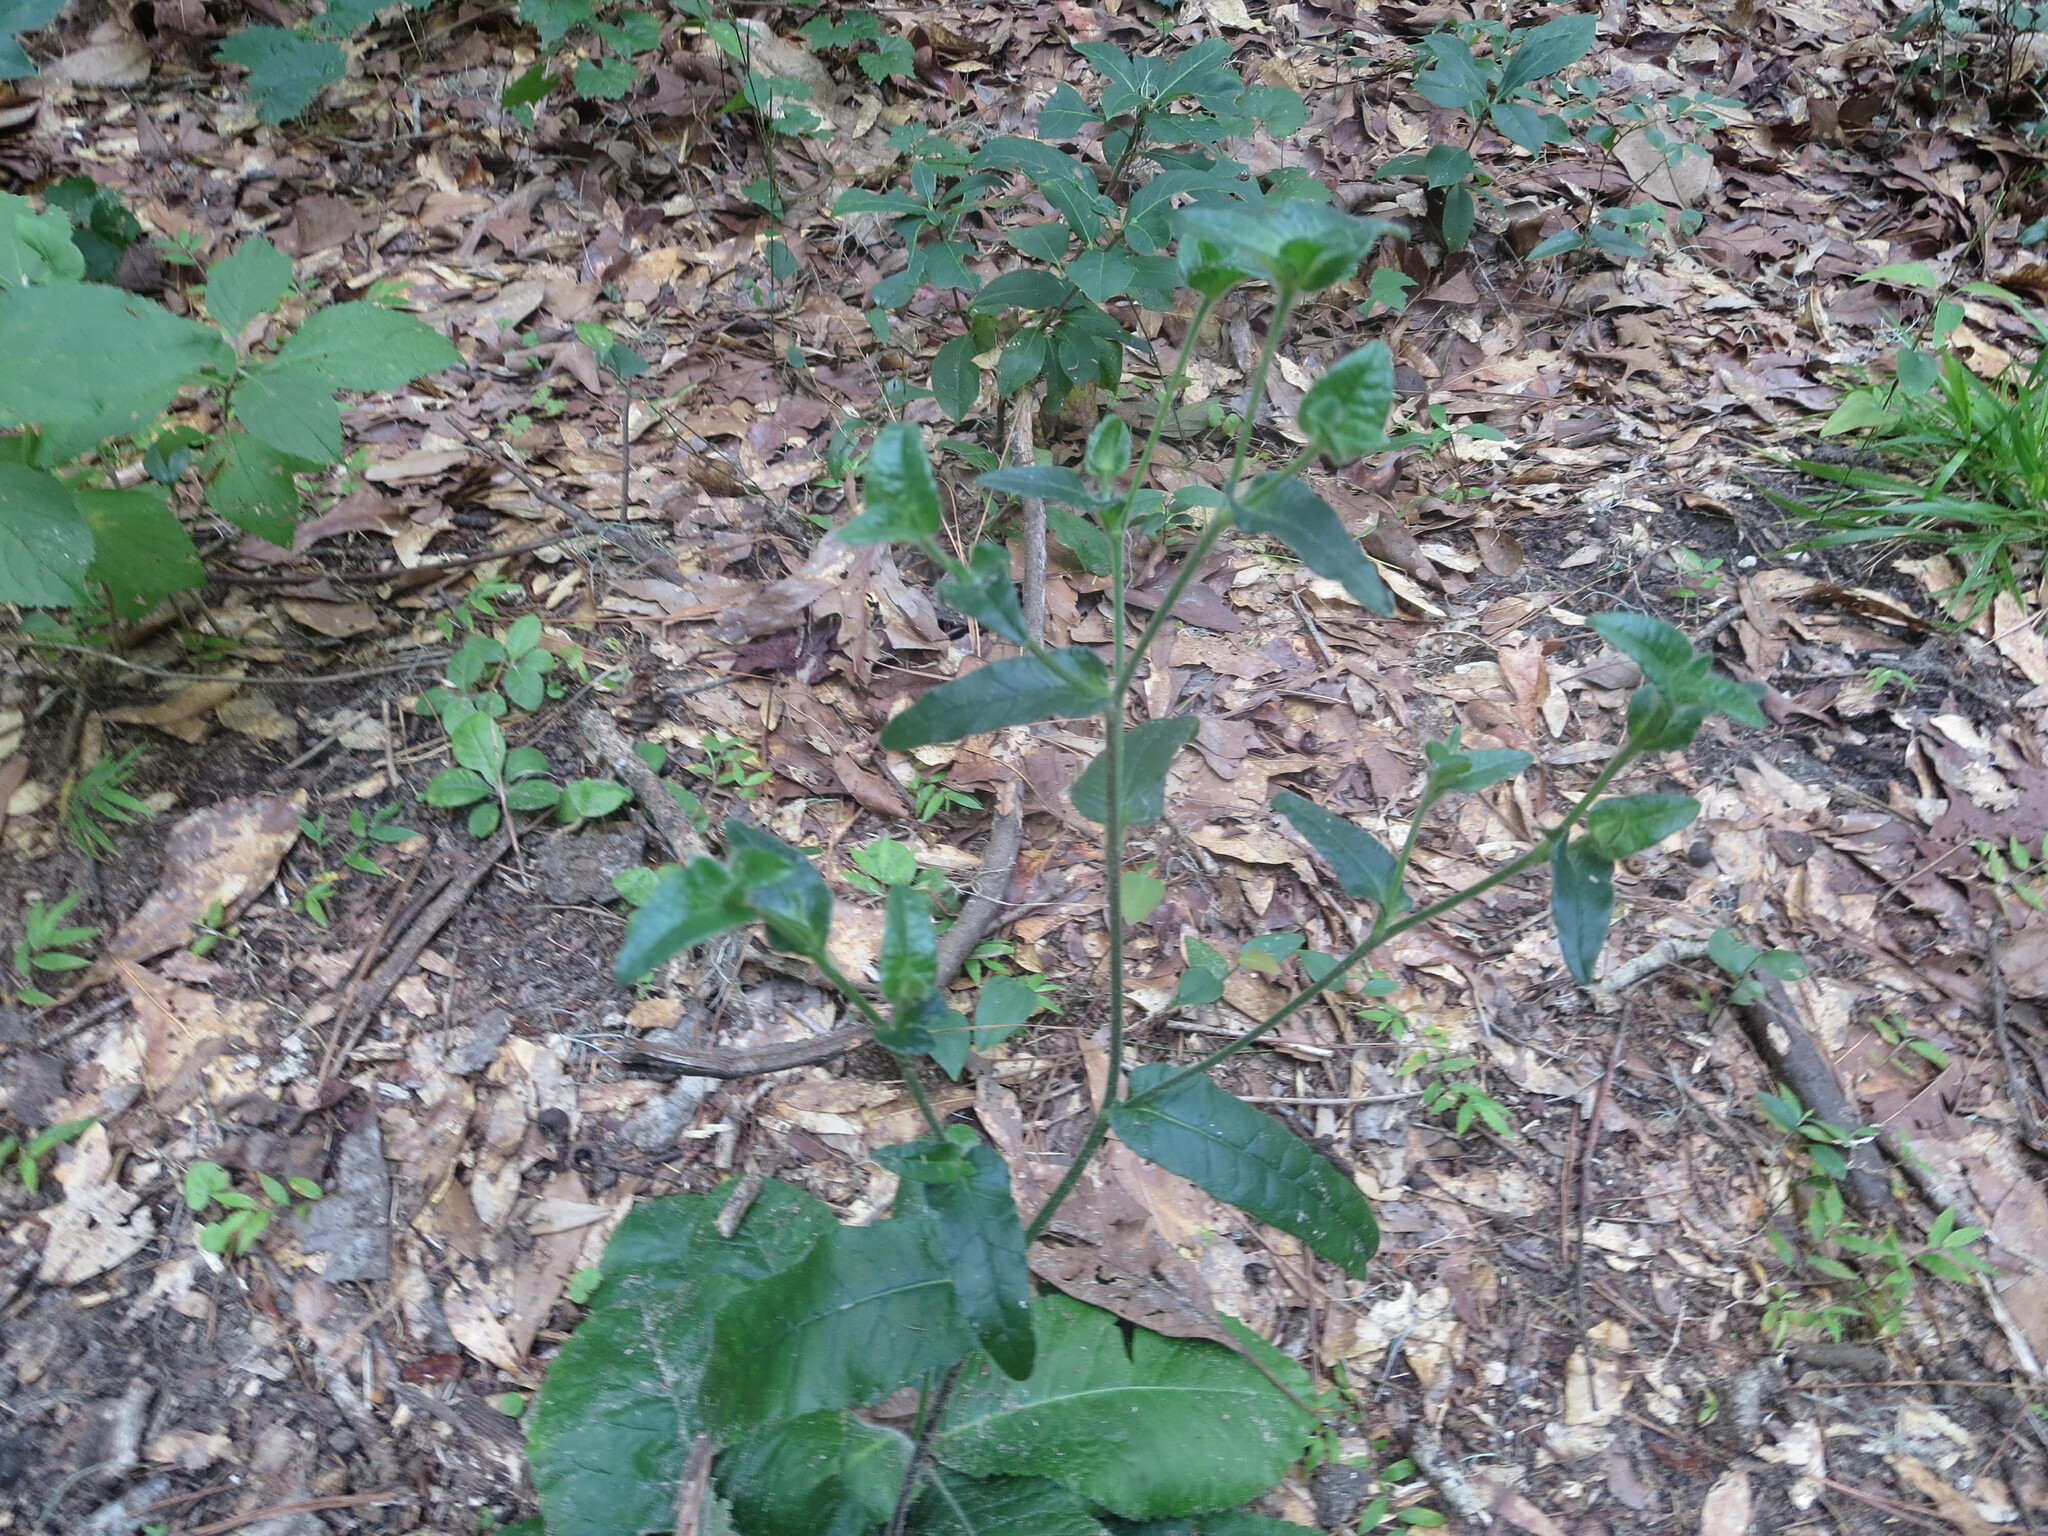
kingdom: Plantae
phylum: Tracheophyta
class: Magnoliopsida
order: Asterales
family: Asteraceae
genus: Elephantopus
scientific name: Elephantopus tomentosus
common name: Tobacco-weed
